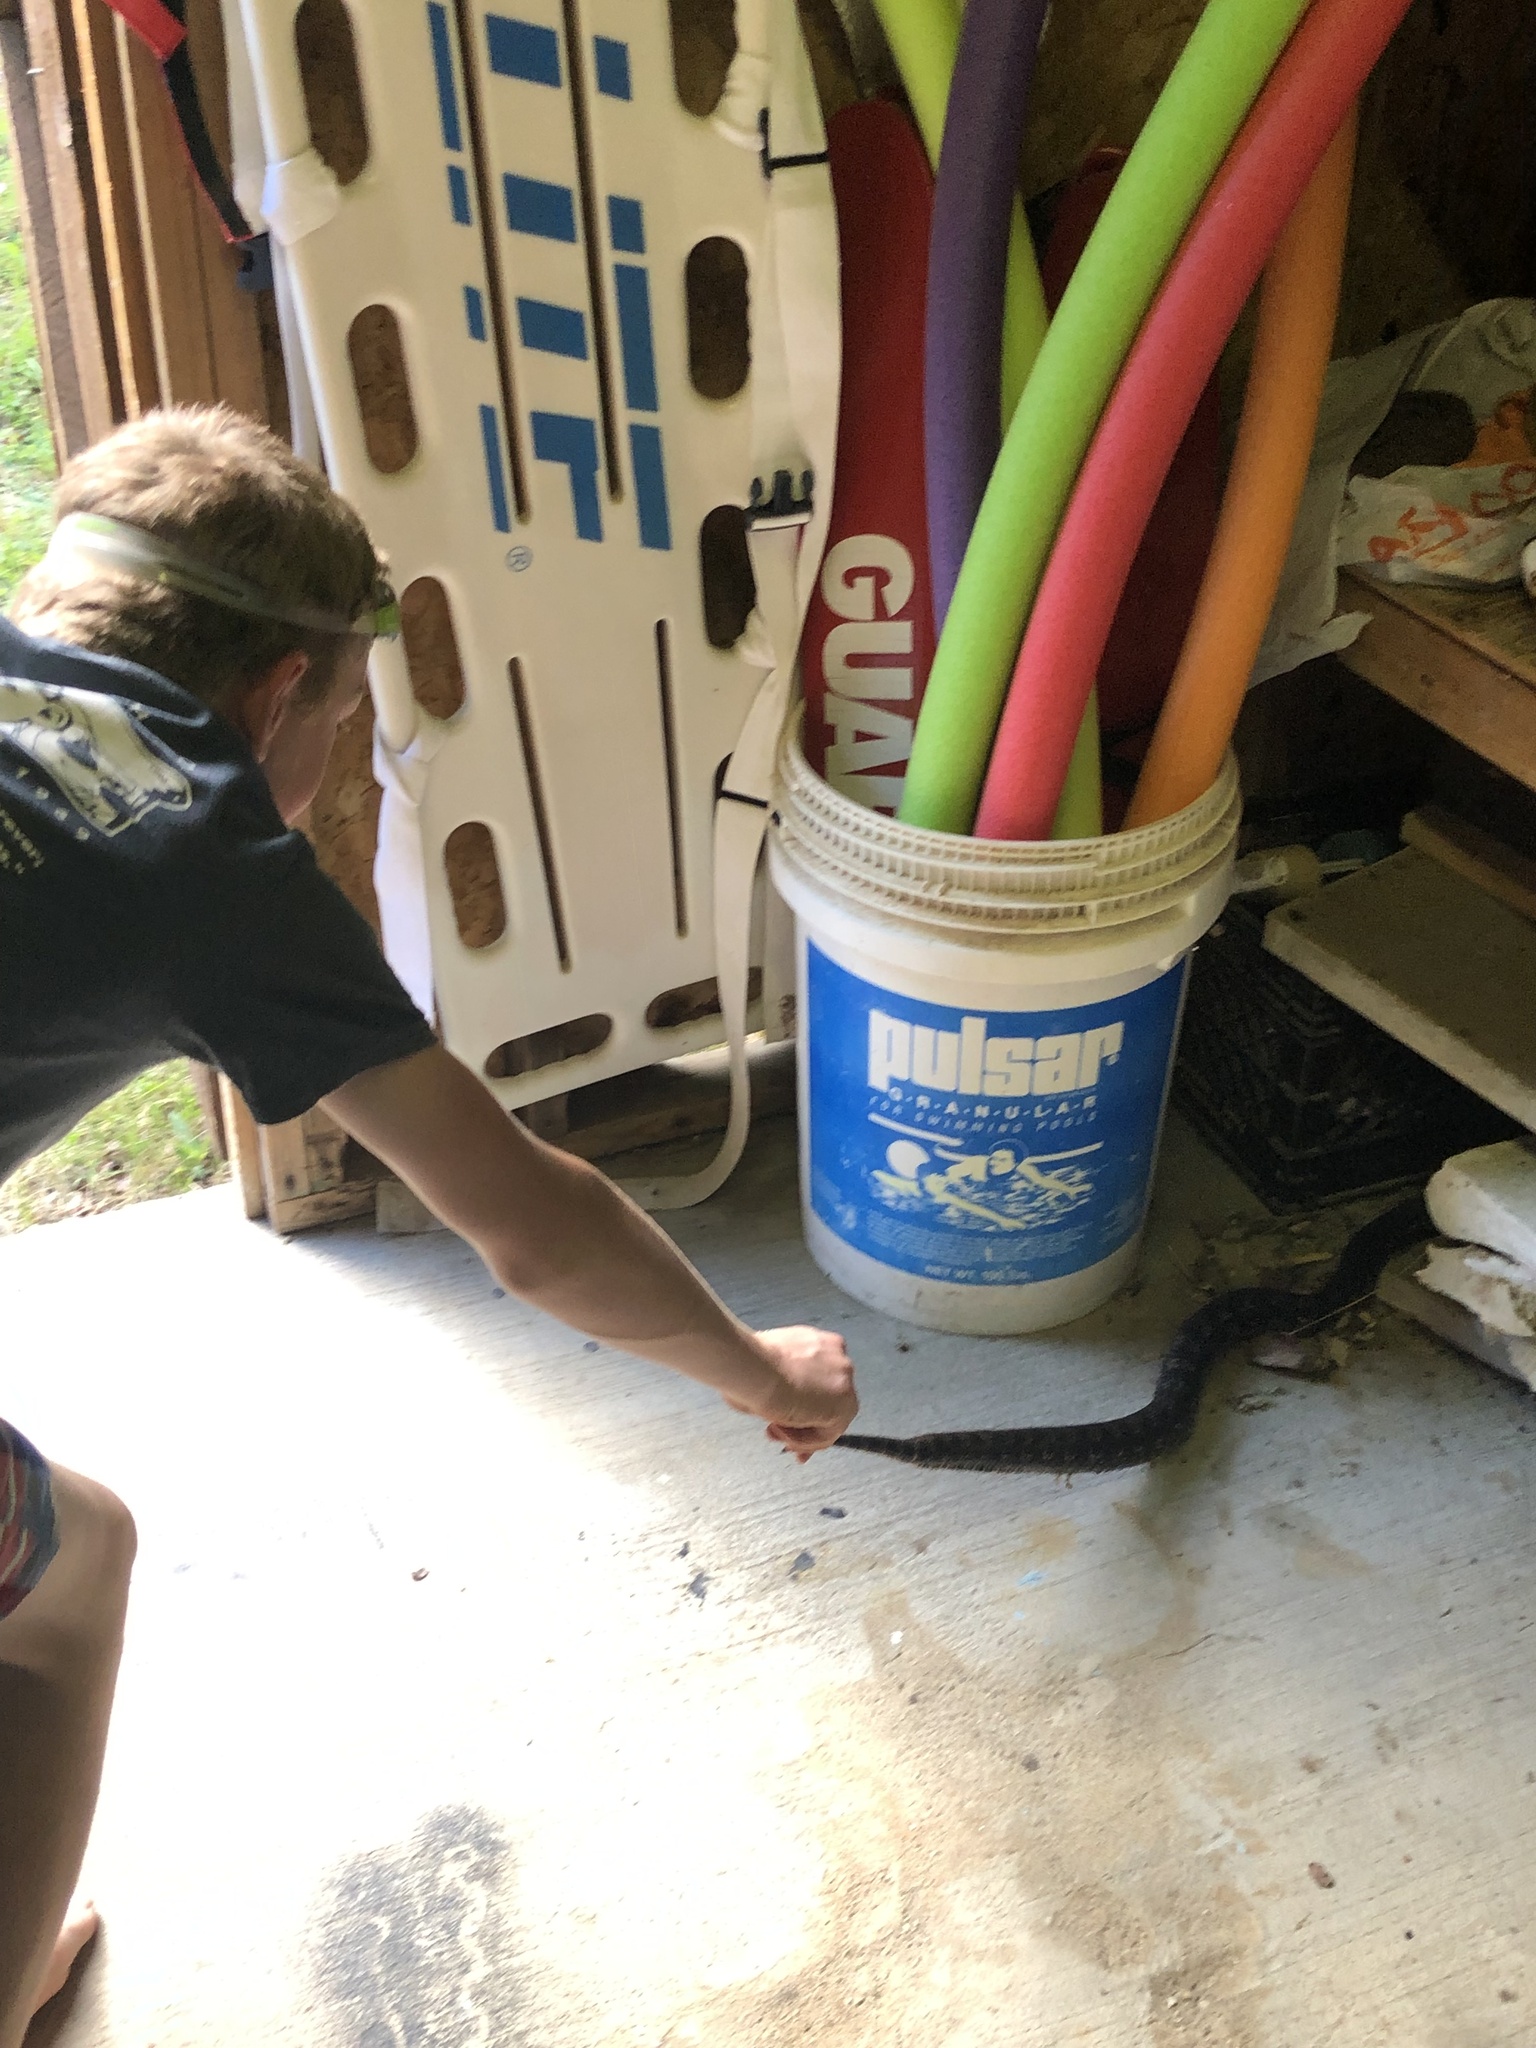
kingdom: Animalia
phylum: Chordata
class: Squamata
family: Colubridae
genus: Heterodon
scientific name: Heterodon platirhinos
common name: Eastern hognose snake
